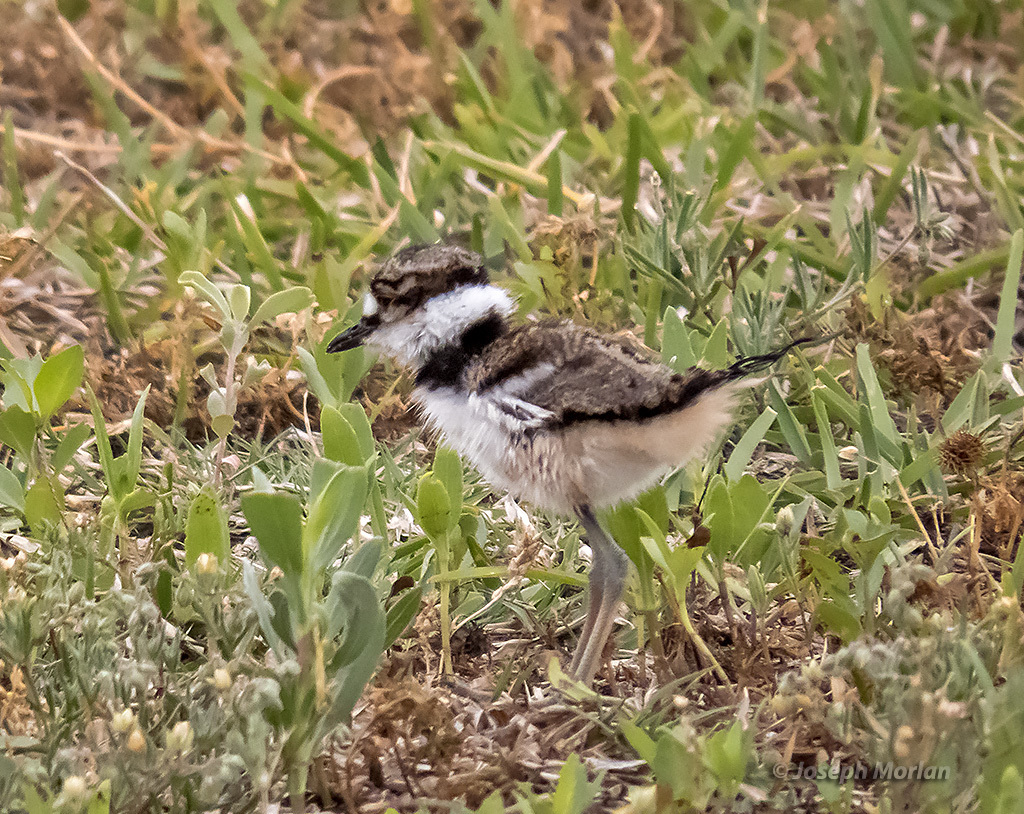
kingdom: Animalia
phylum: Chordata
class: Aves
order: Charadriiformes
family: Charadriidae
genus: Charadrius
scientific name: Charadrius vociferus
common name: Killdeer
